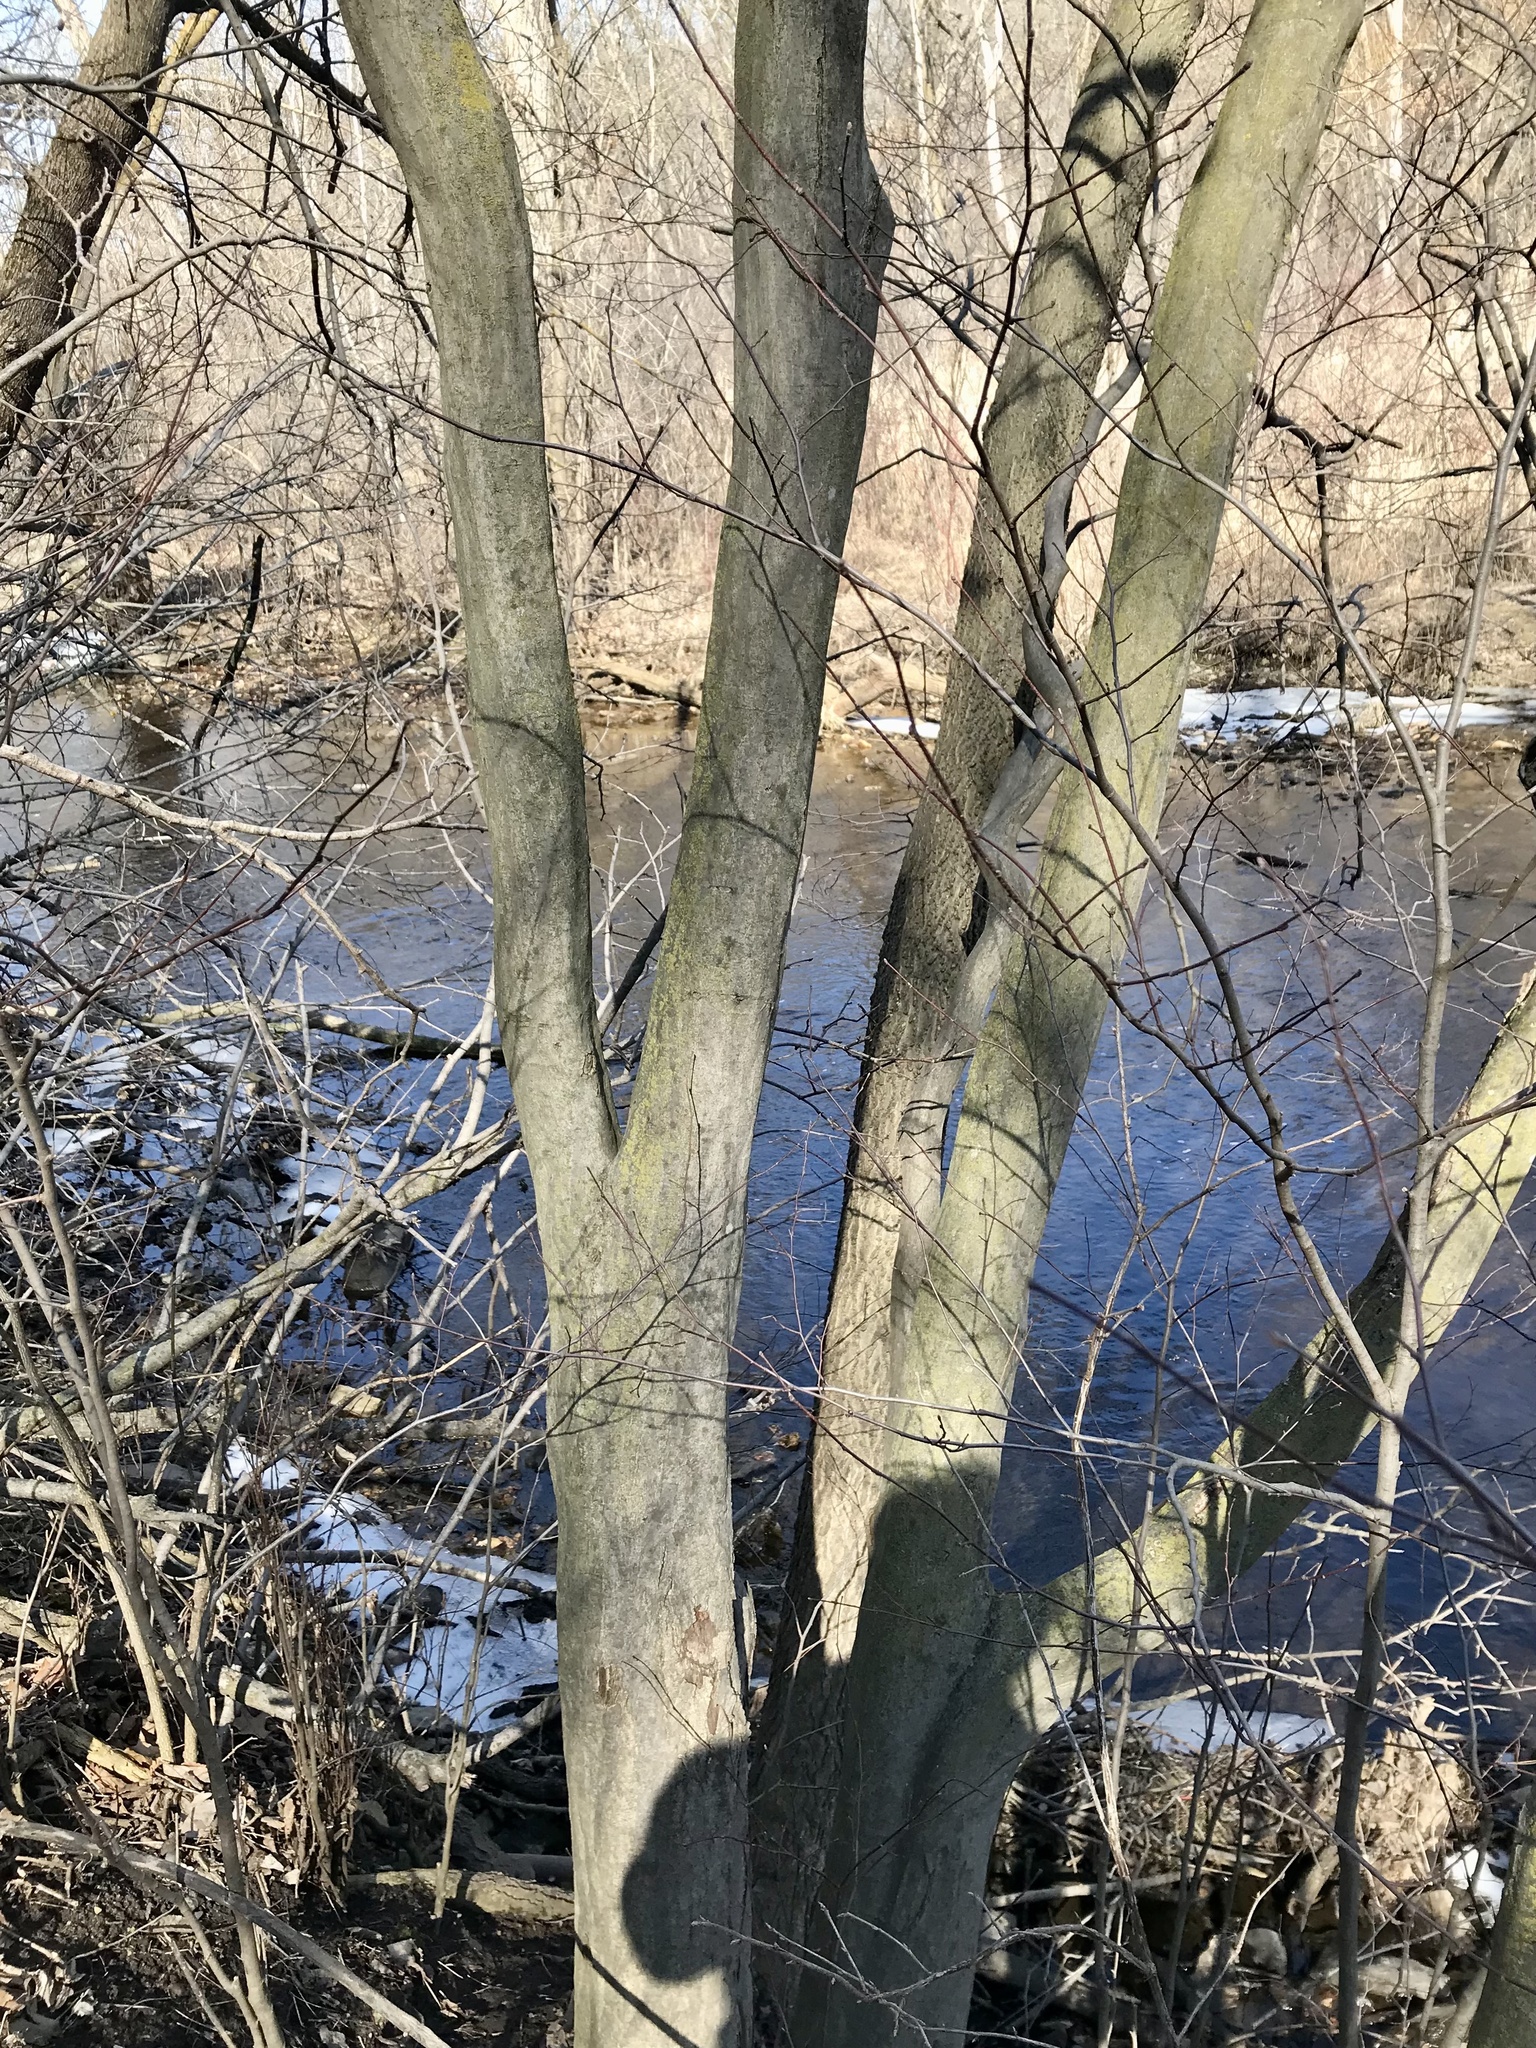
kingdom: Plantae
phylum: Tracheophyta
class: Magnoliopsida
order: Fagales
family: Betulaceae
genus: Carpinus
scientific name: Carpinus caroliniana
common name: American hornbeam
